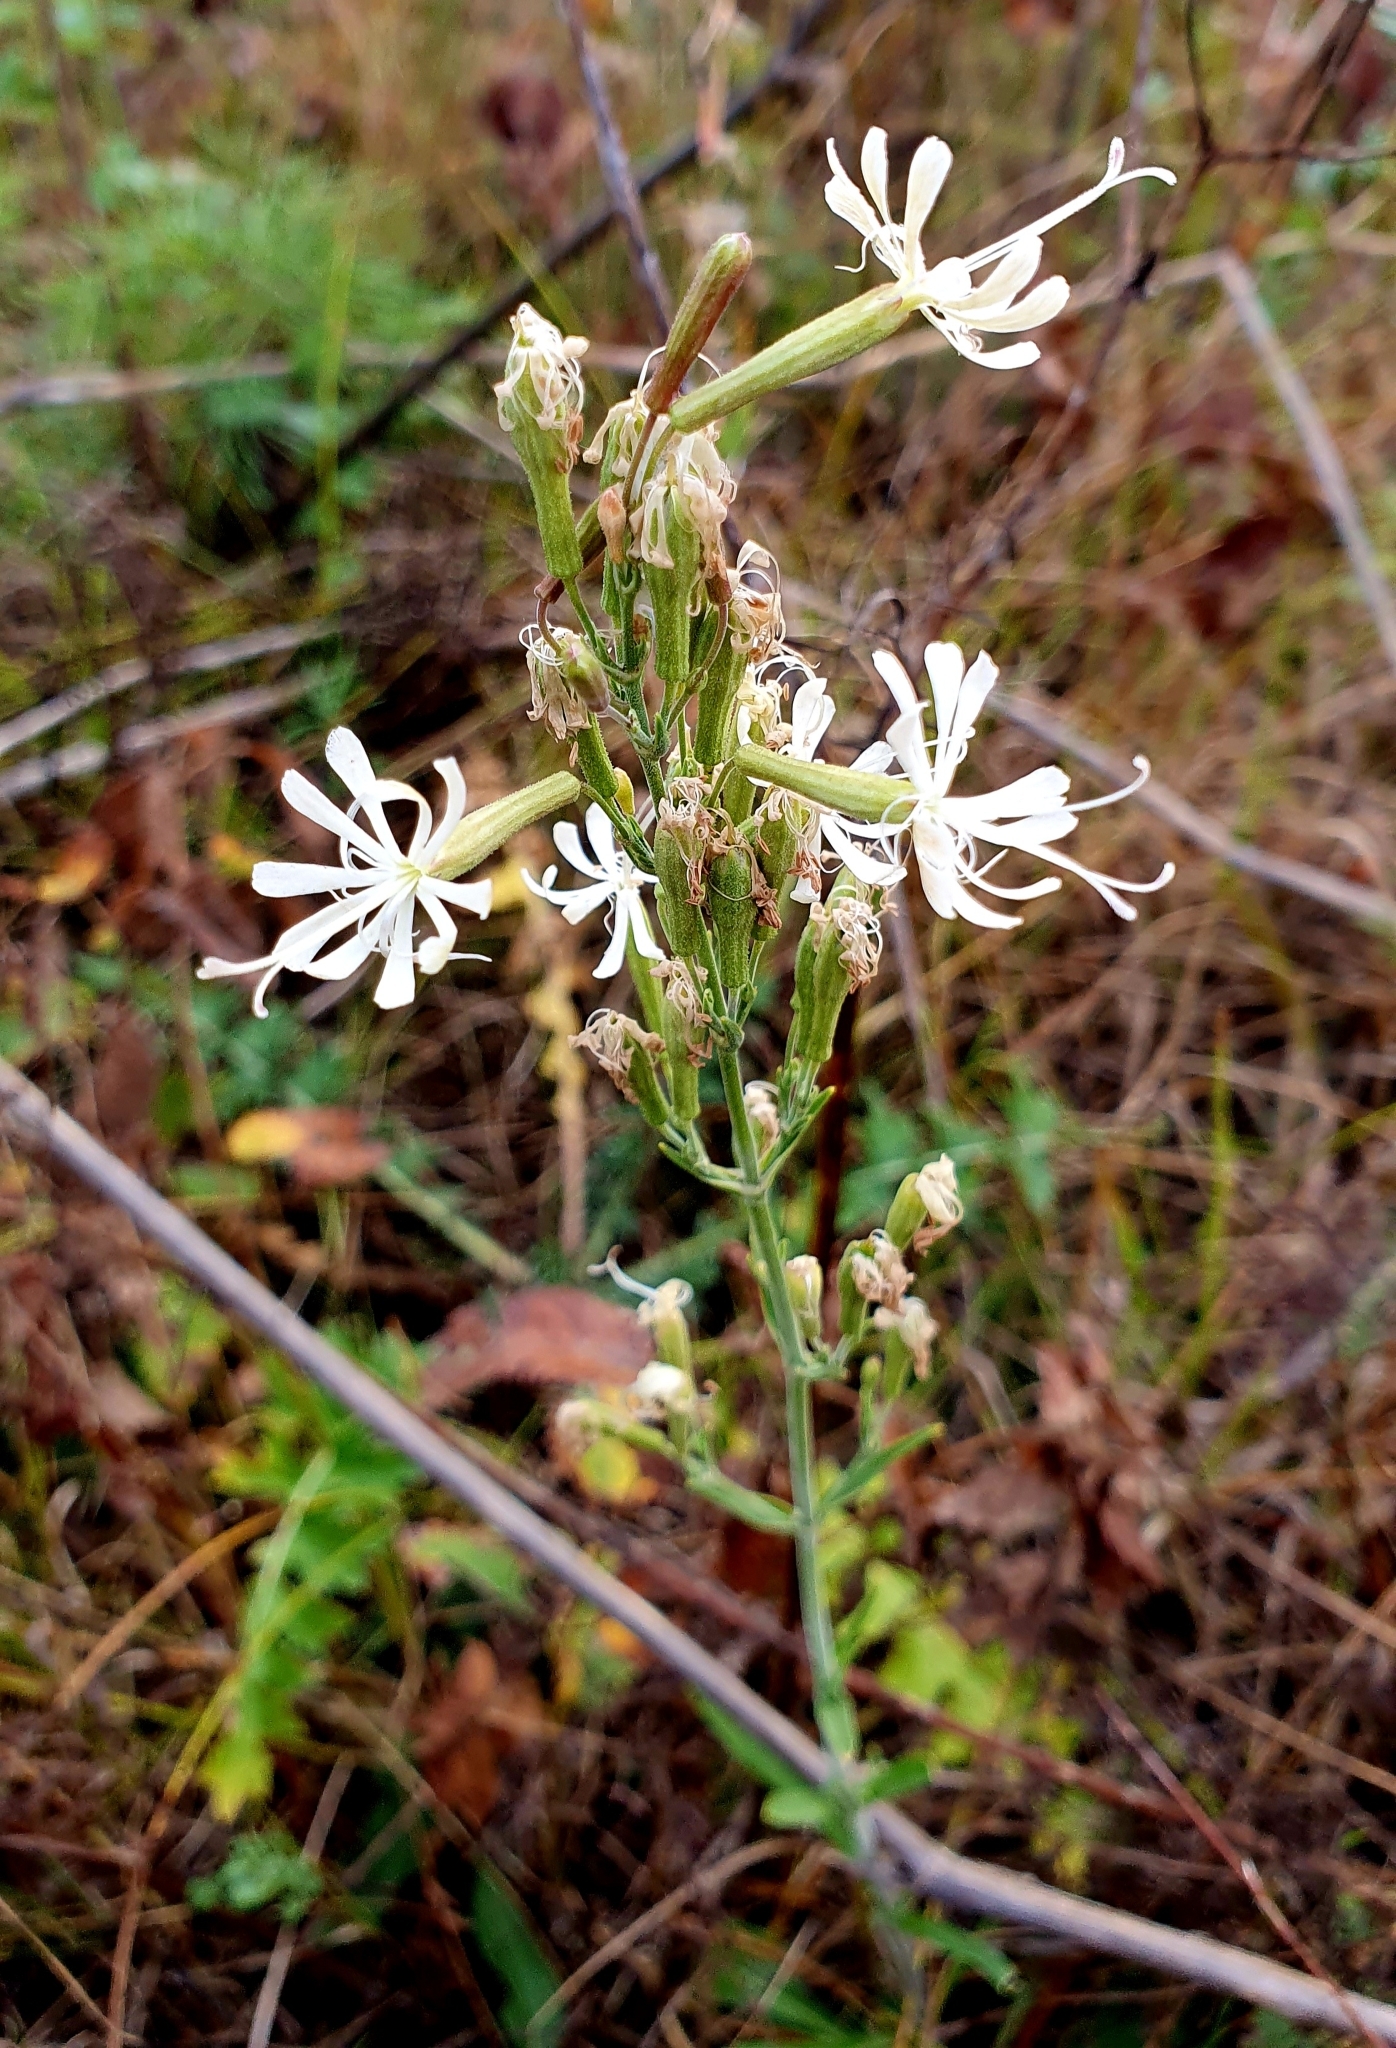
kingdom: Plantae
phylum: Tracheophyta
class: Magnoliopsida
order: Caryophyllales
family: Caryophyllaceae
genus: Silene
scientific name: Silene multiflora
